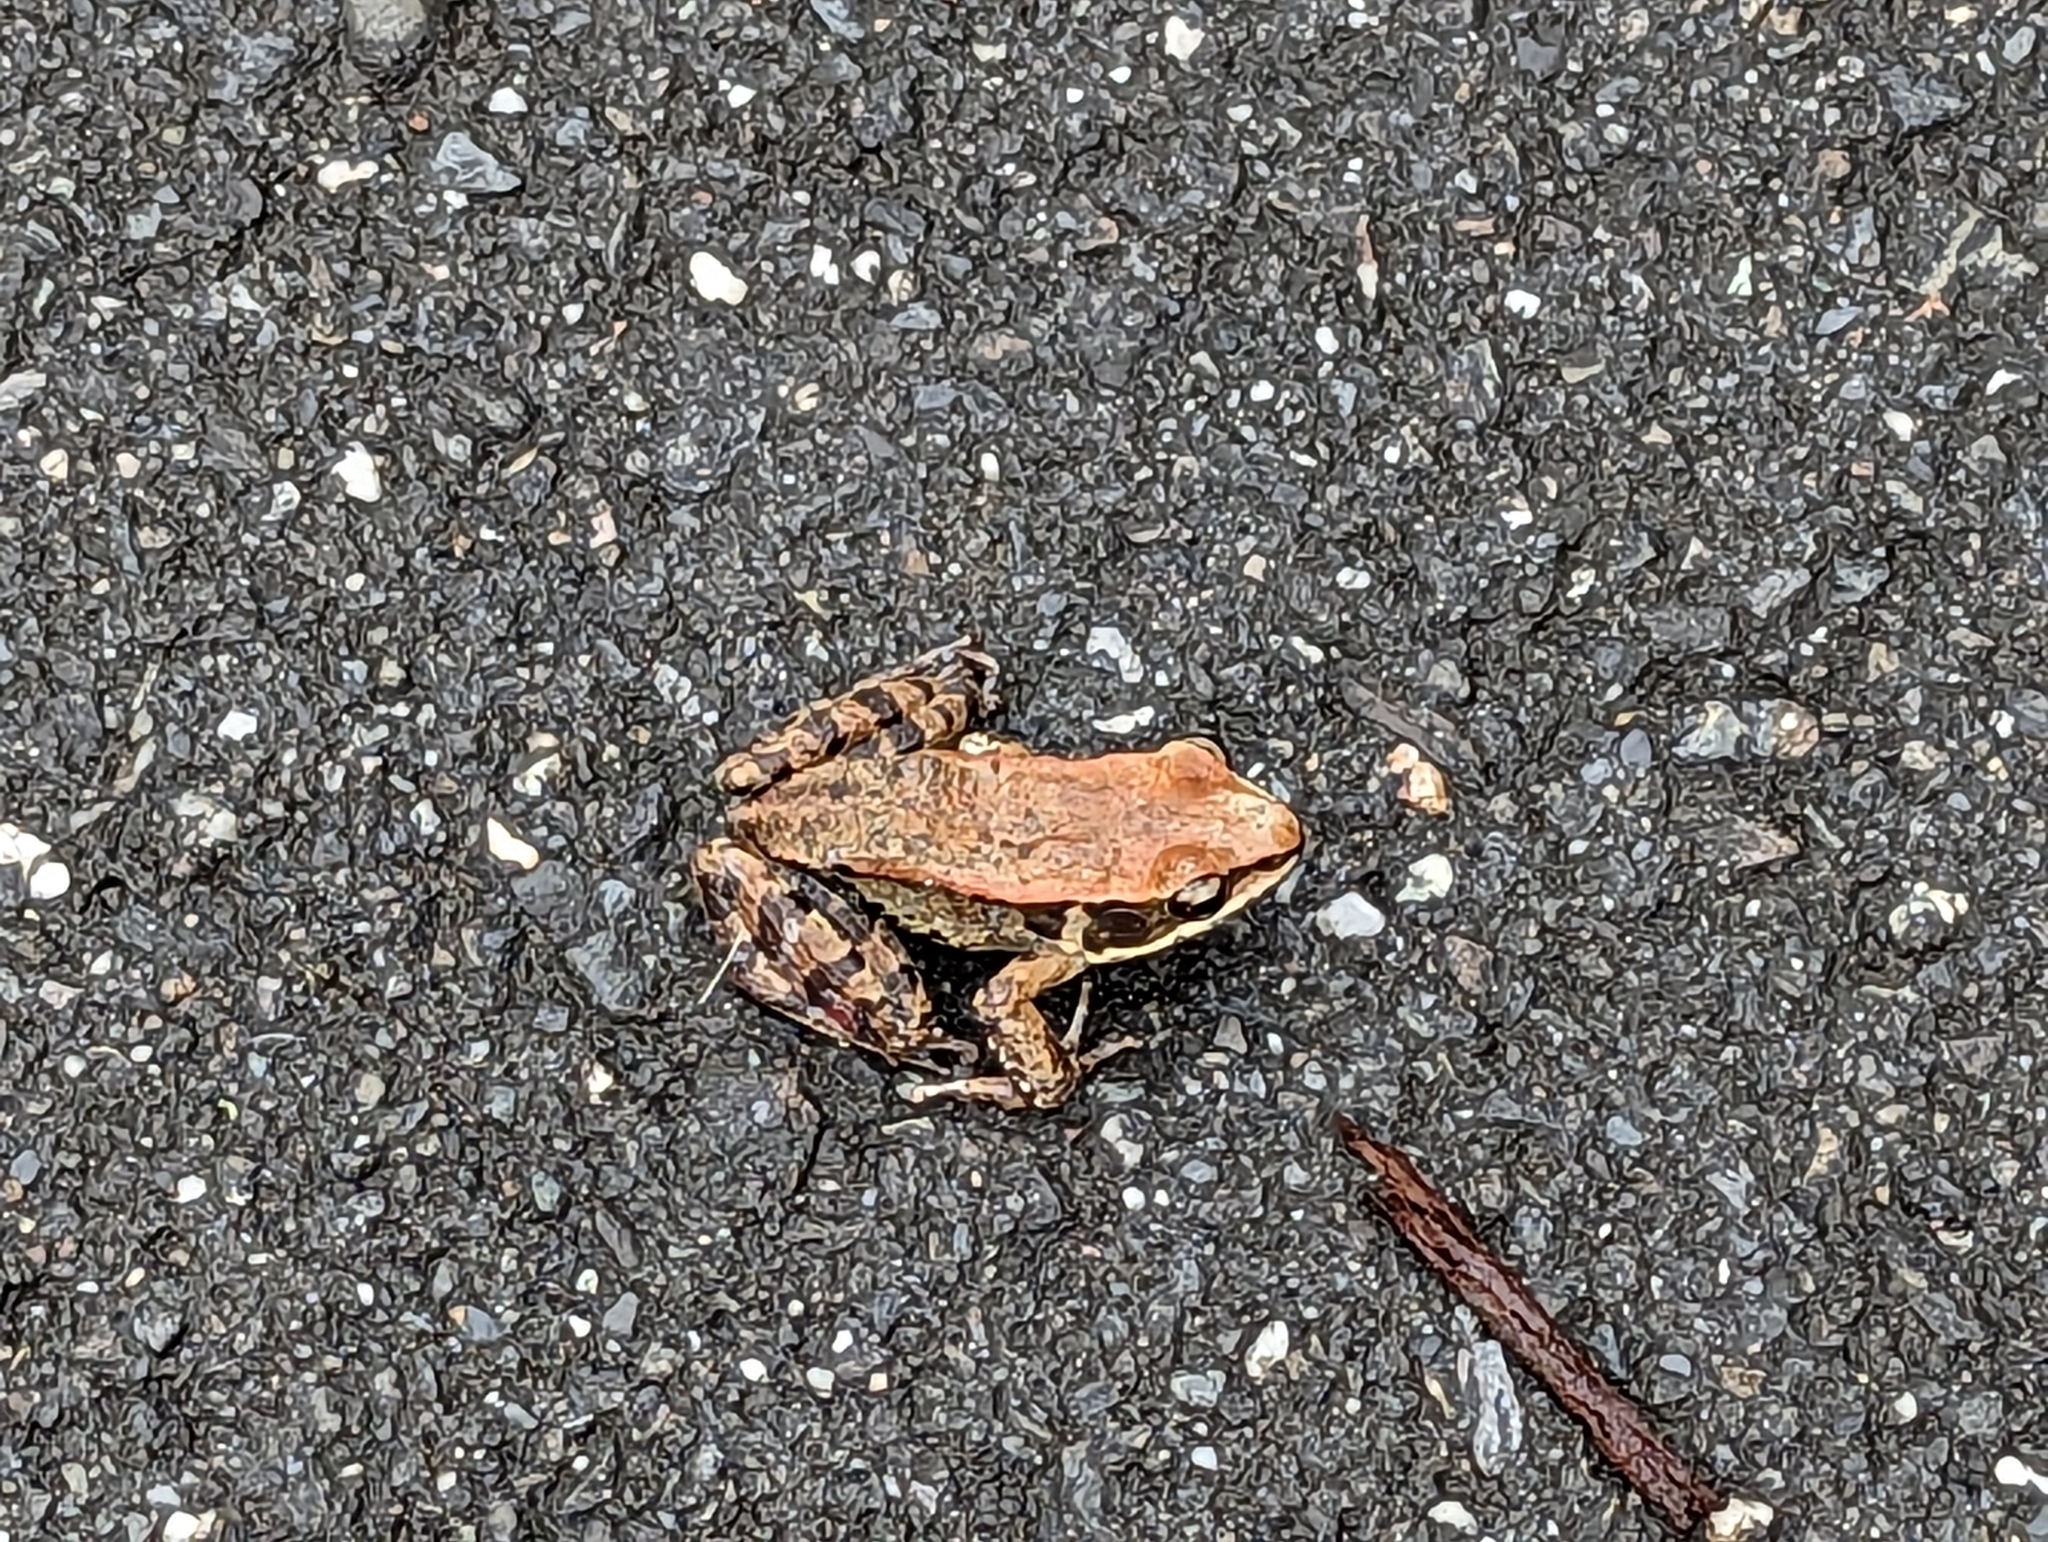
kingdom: Animalia
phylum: Chordata
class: Amphibia
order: Anura
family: Ranidae
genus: Hylarana
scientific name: Hylarana latouchii
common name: Broad-folded frog
